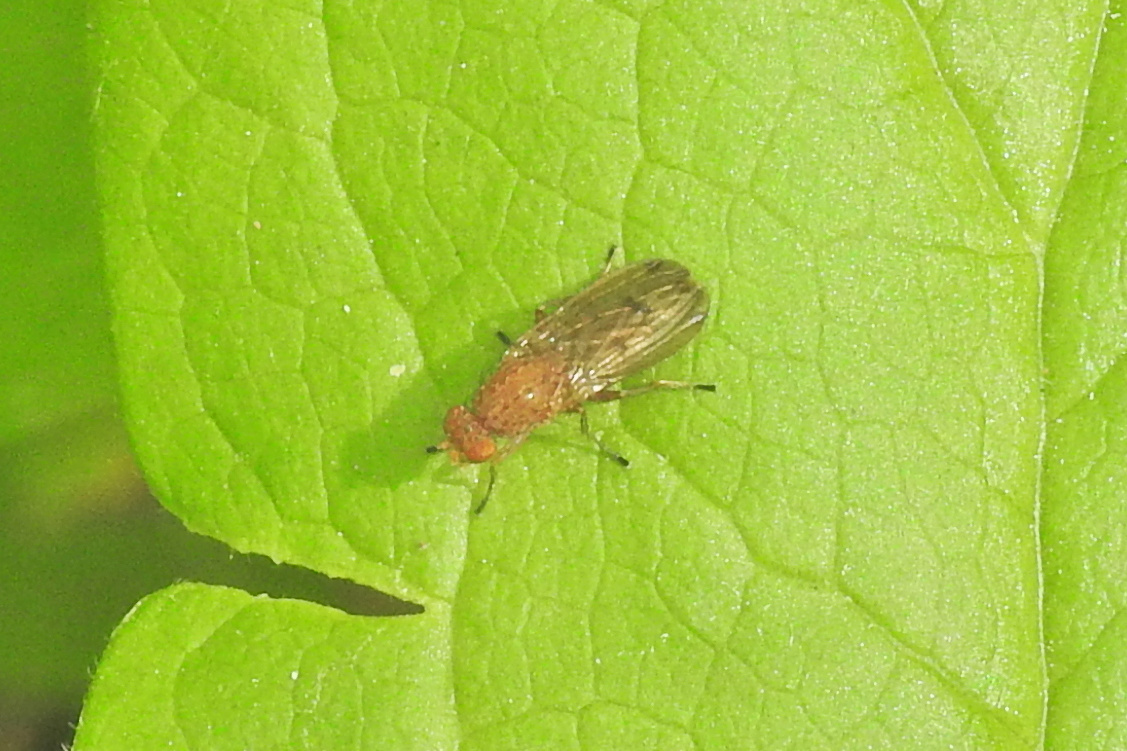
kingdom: Animalia
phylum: Arthropoda
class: Insecta
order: Diptera
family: Heleomyzidae
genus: Suillia
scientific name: Suillia
